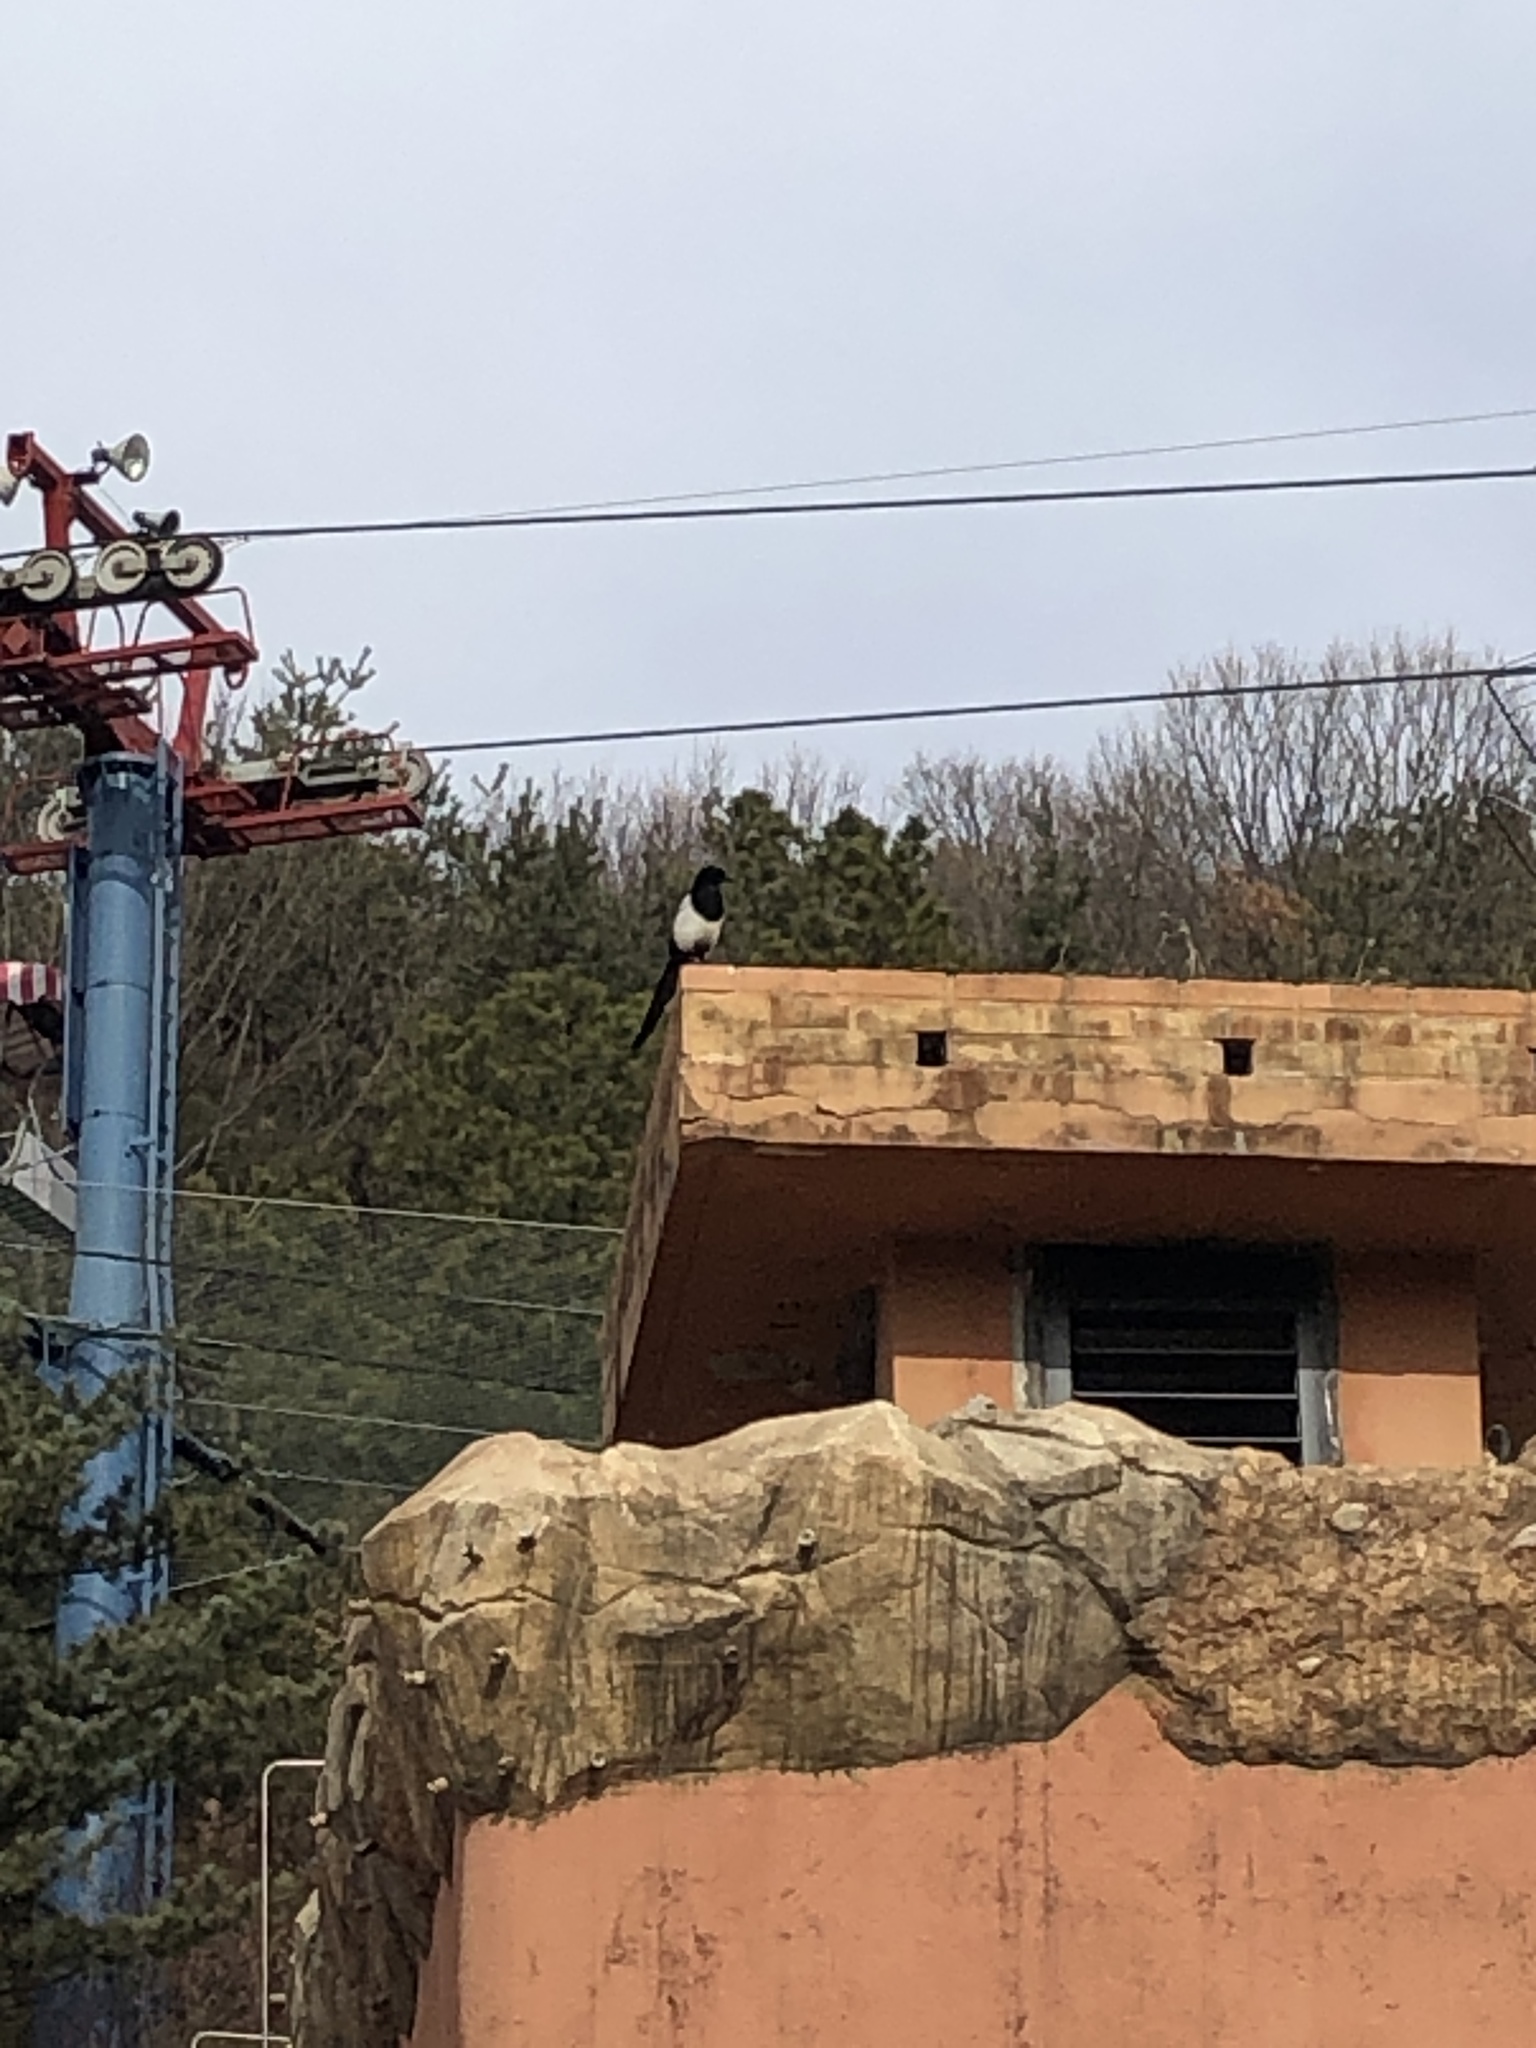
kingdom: Animalia
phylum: Chordata
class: Aves
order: Passeriformes
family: Corvidae
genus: Pica
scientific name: Pica serica
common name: Oriental magpie
